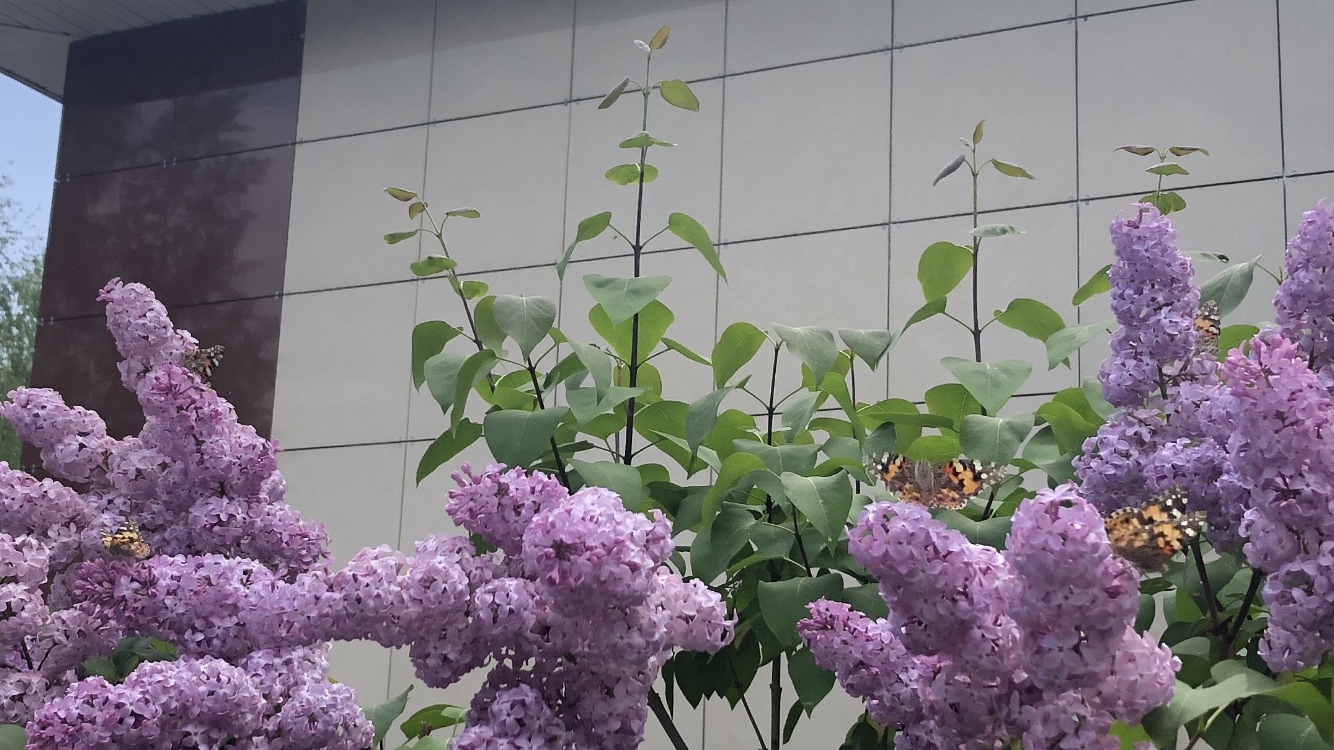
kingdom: Animalia
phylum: Arthropoda
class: Insecta
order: Lepidoptera
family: Nymphalidae
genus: Vanessa
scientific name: Vanessa cardui
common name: Painted lady
